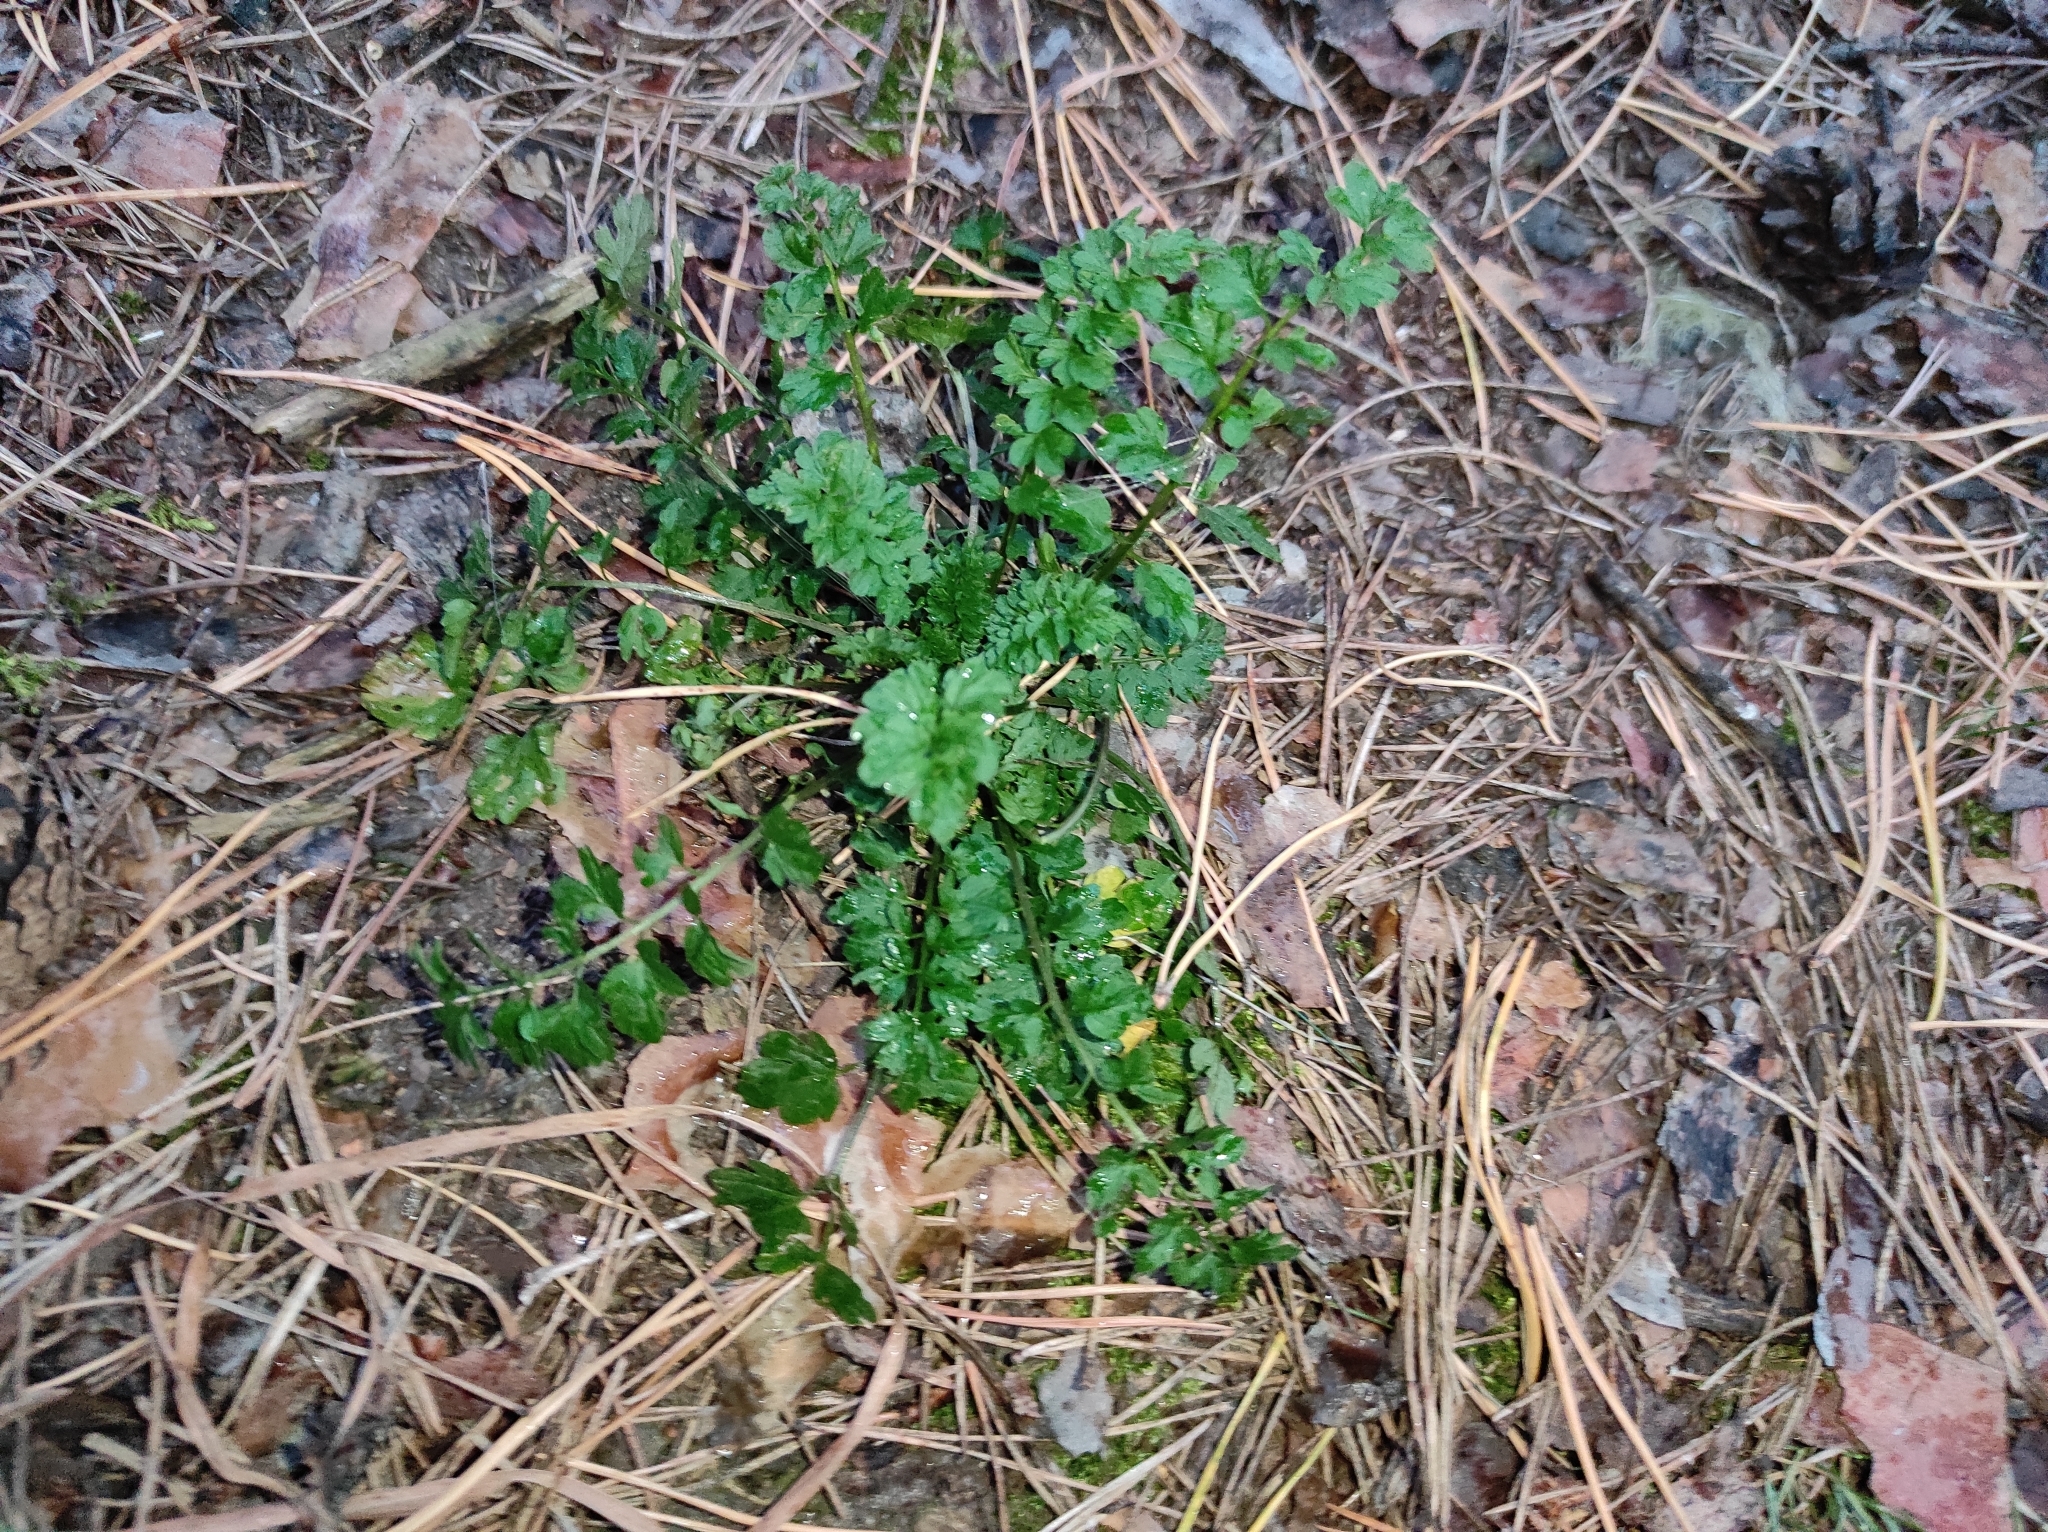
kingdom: Plantae
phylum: Tracheophyta
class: Magnoliopsida
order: Brassicales
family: Brassicaceae
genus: Cardamine
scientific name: Cardamine impatiens
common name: Narrow-leaved bitter-cress
